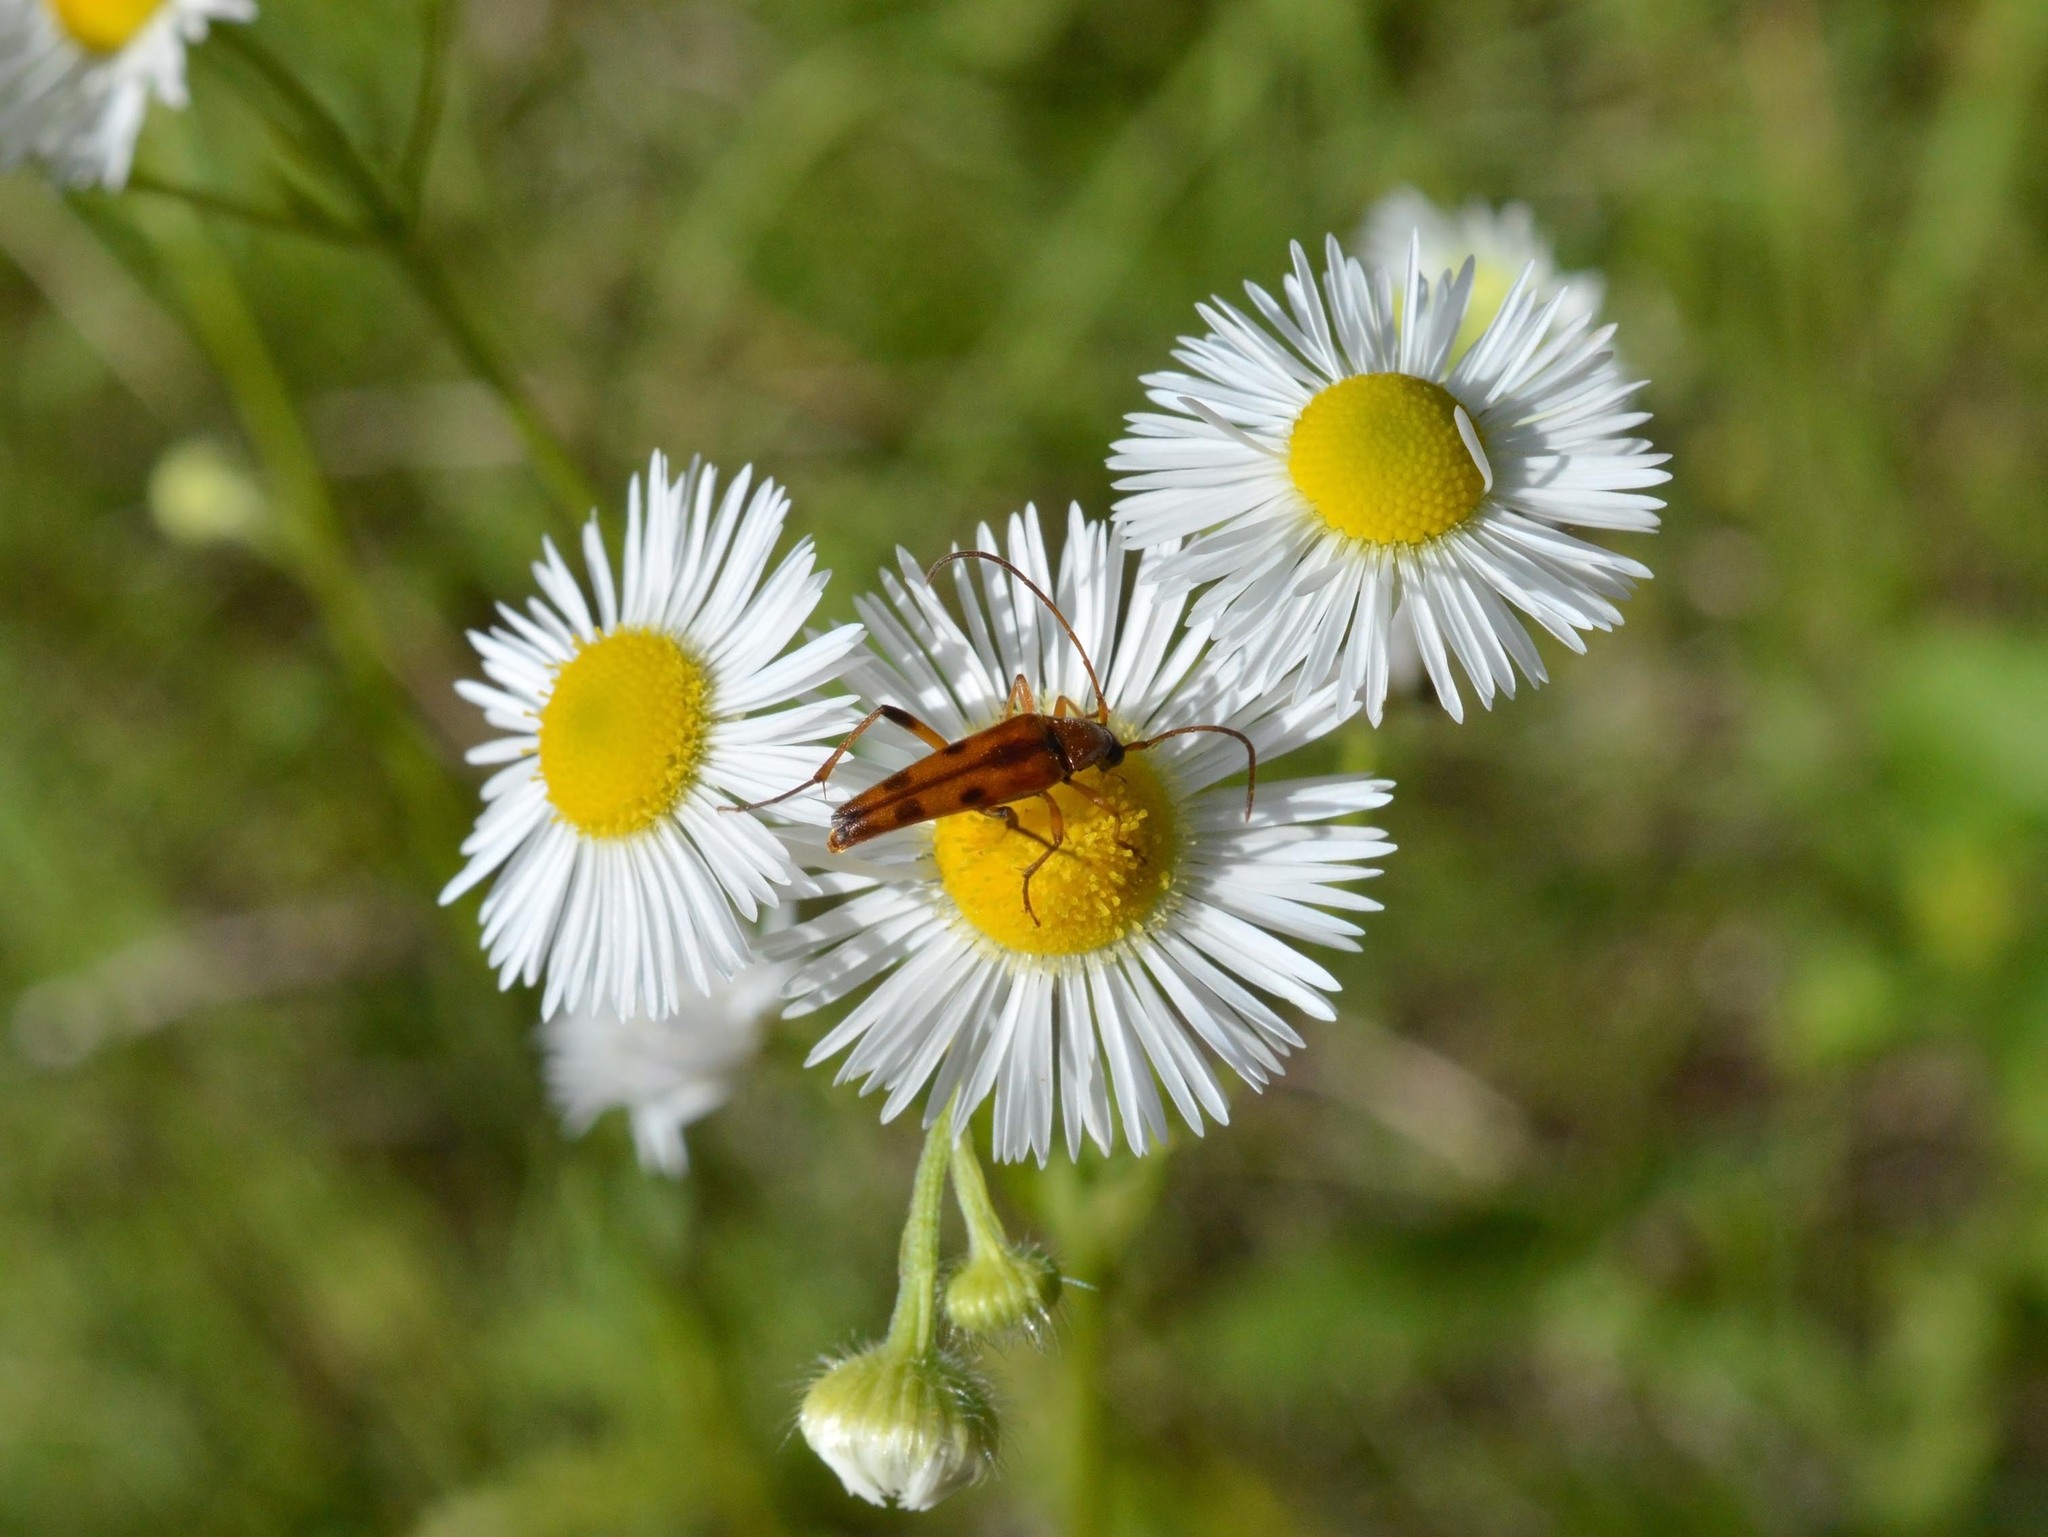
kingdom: Animalia
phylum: Arthropoda
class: Insecta
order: Coleoptera
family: Cerambycidae
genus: Stenurella
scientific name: Stenurella septempunctata
